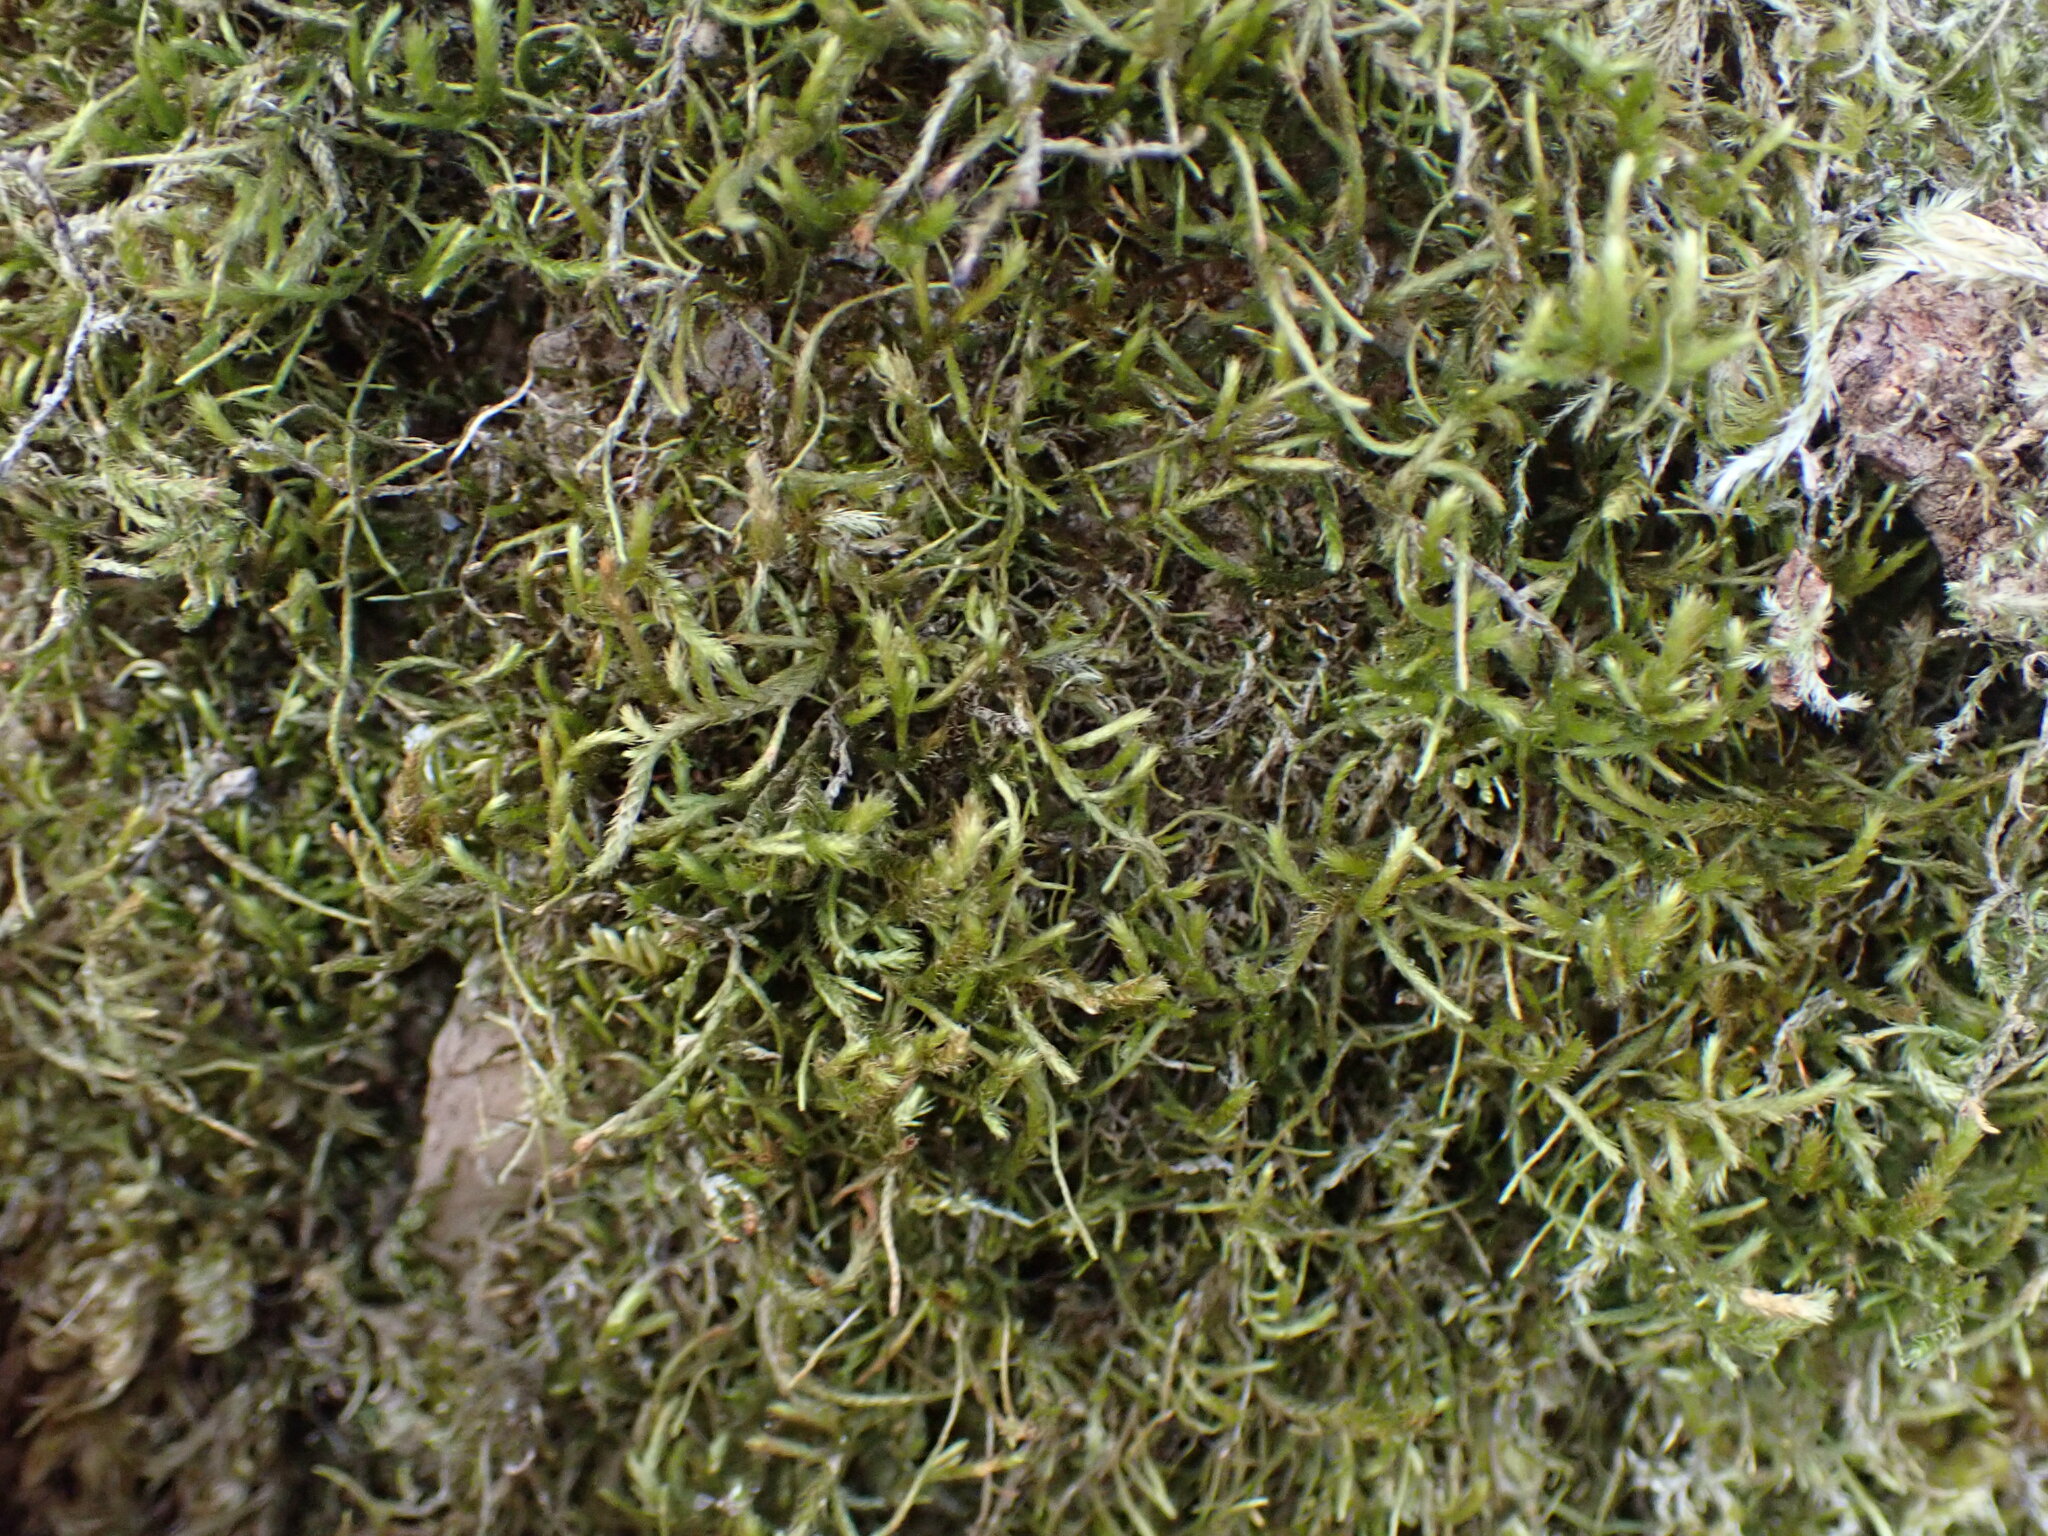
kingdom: Plantae
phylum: Bryophyta
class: Bryopsida
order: Hypnales
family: Antitrichiaceae
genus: Antitrichia
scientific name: Antitrichia californica
